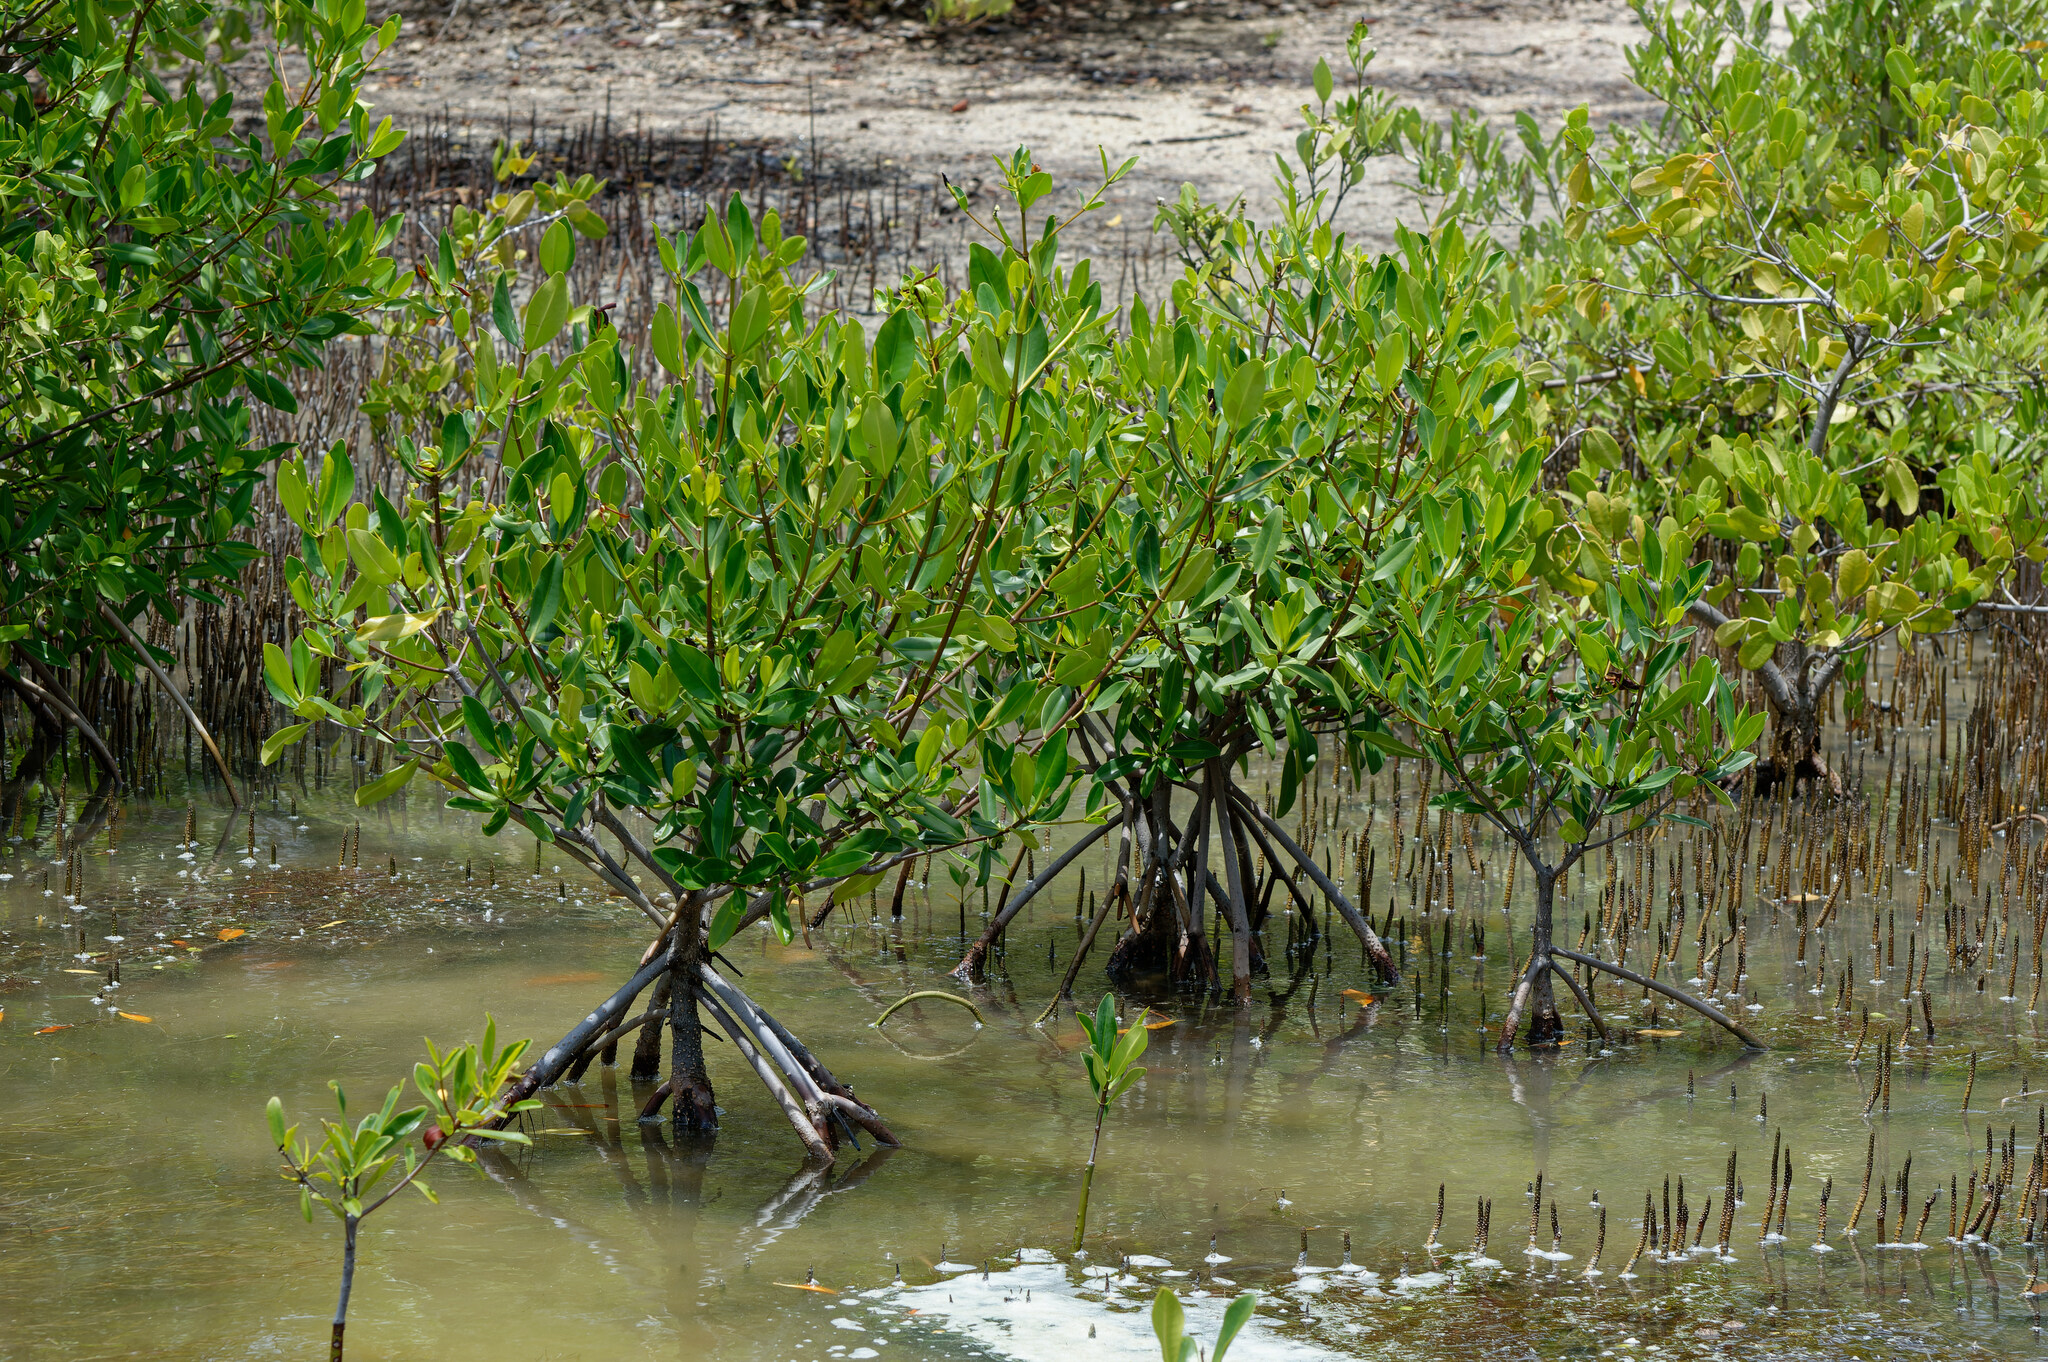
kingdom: Plantae
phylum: Tracheophyta
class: Magnoliopsida
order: Malpighiales
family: Rhizophoraceae
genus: Rhizophora
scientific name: Rhizophora mangle
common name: Red mangrove
